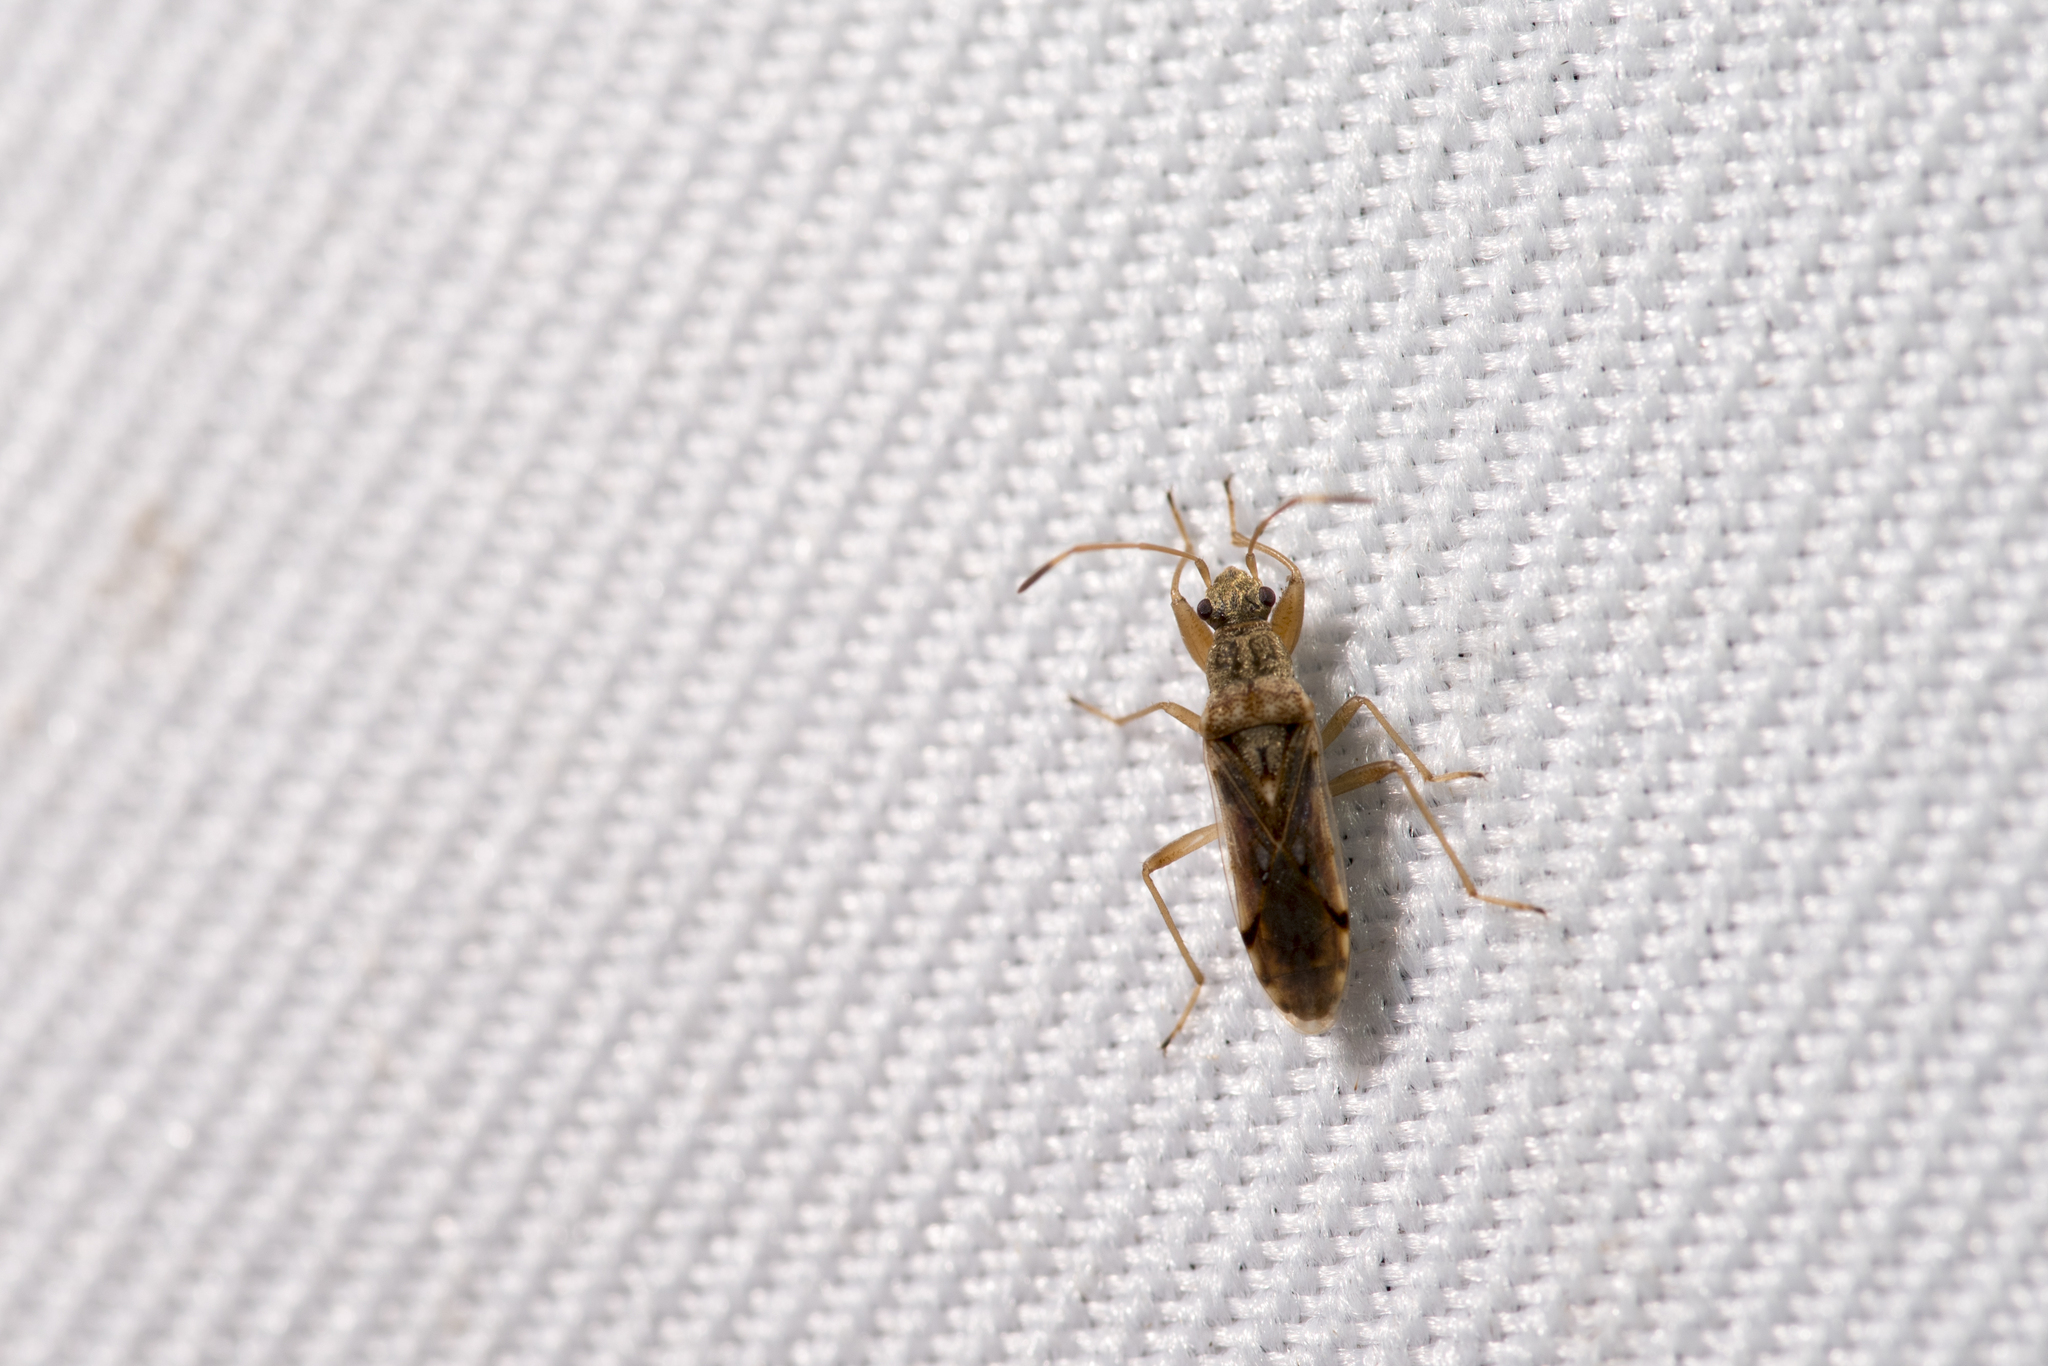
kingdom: Animalia
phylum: Arthropoda
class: Insecta
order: Hemiptera
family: Rhyparochromidae
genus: Paromius
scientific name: Paromius excelsus
